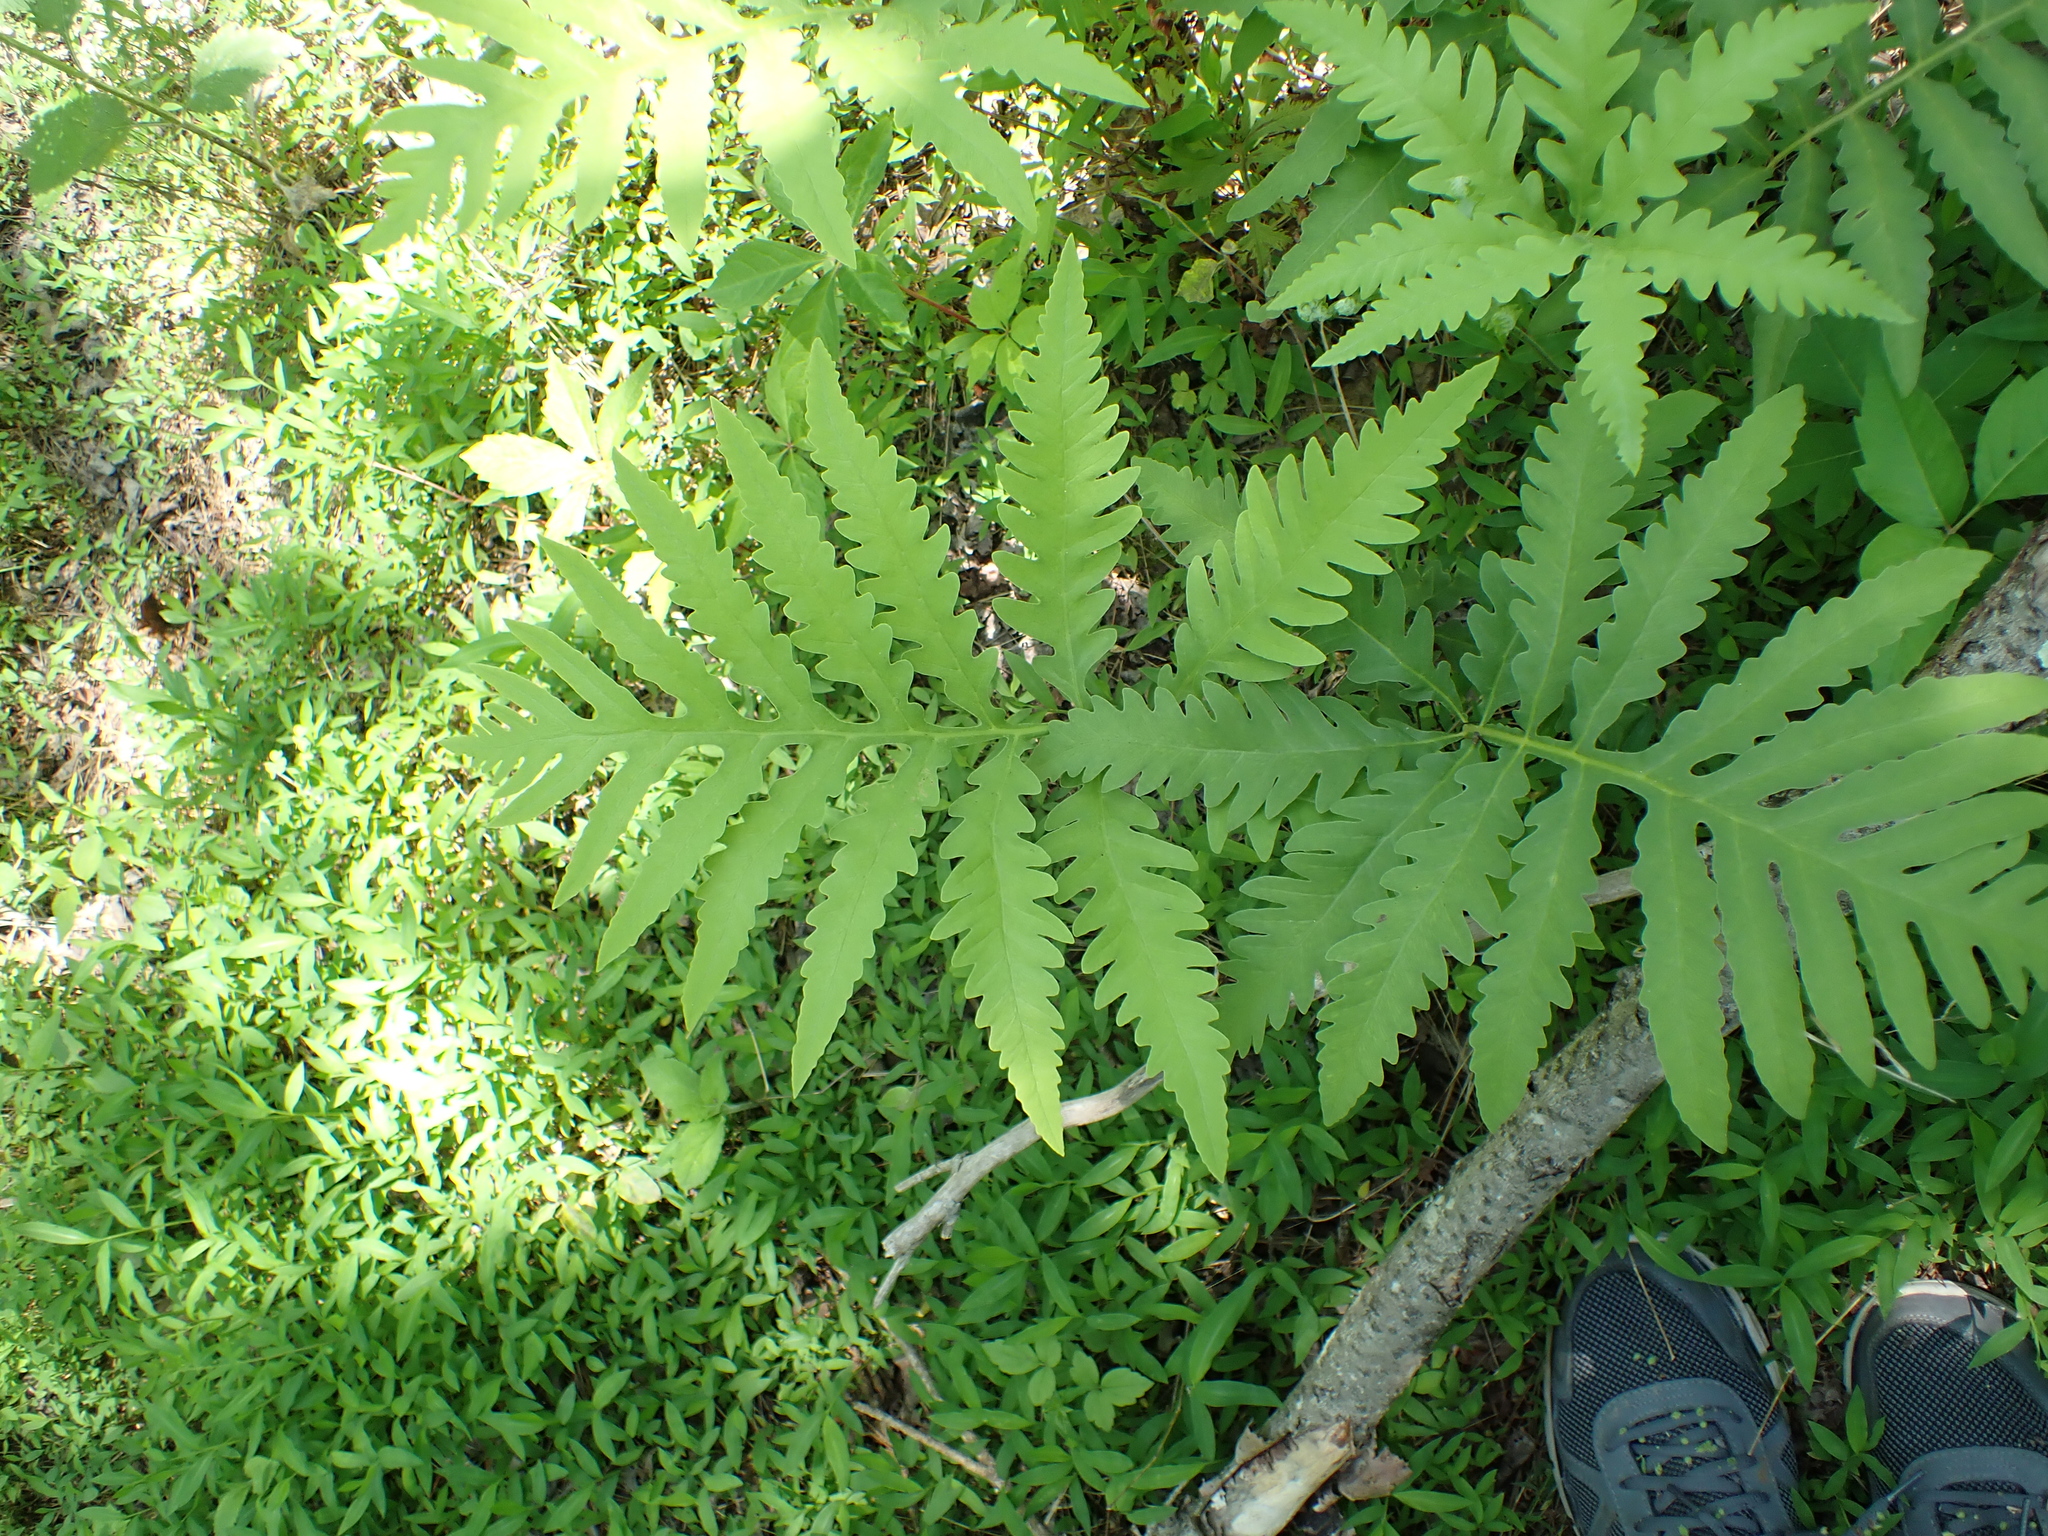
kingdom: Plantae
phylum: Tracheophyta
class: Polypodiopsida
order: Polypodiales
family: Onocleaceae
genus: Onoclea
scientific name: Onoclea sensibilis
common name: Sensitive fern
